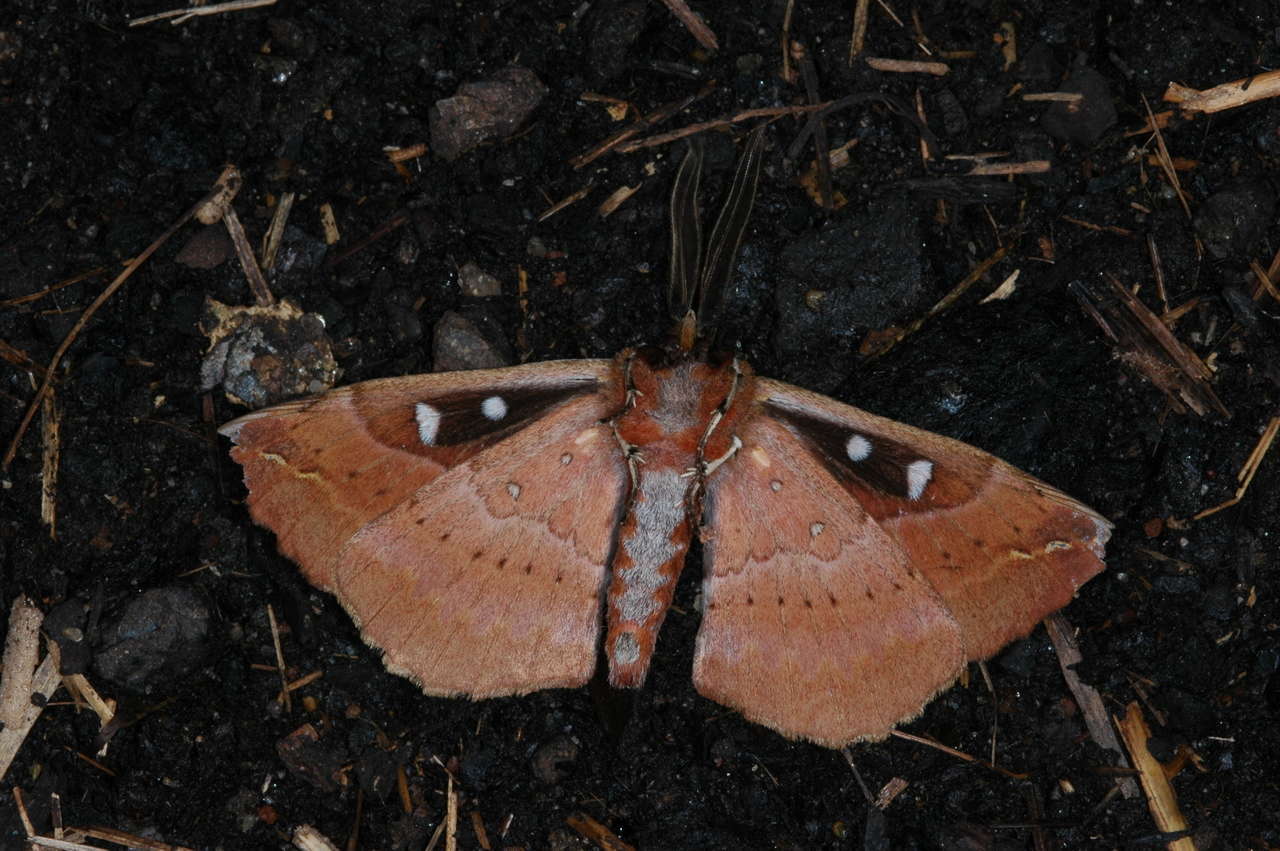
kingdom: Animalia
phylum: Arthropoda
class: Insecta
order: Lepidoptera
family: Anthelidae
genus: Chelepteryx
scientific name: Chelepteryx chalepteryx
